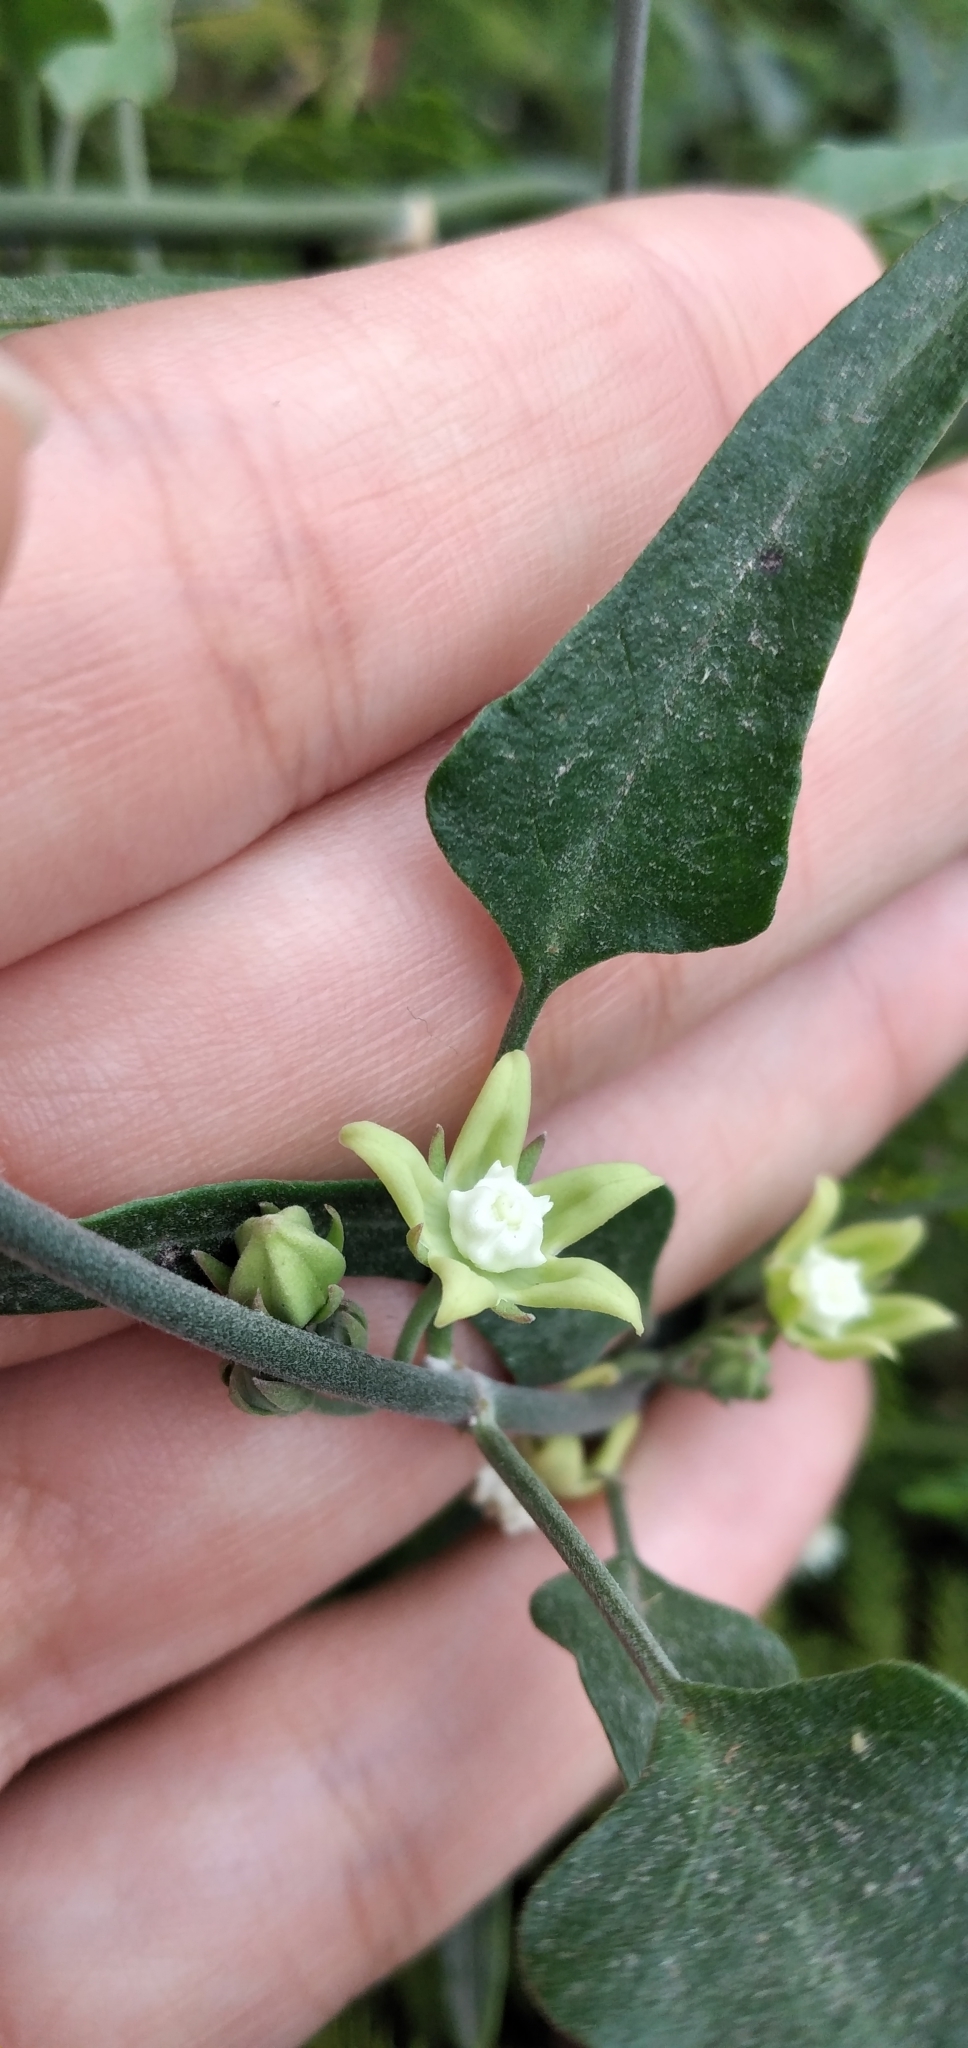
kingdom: Plantae
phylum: Tracheophyta
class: Magnoliopsida
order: Gentianales
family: Apocynaceae
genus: Araujia
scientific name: Araujia brachystephana
